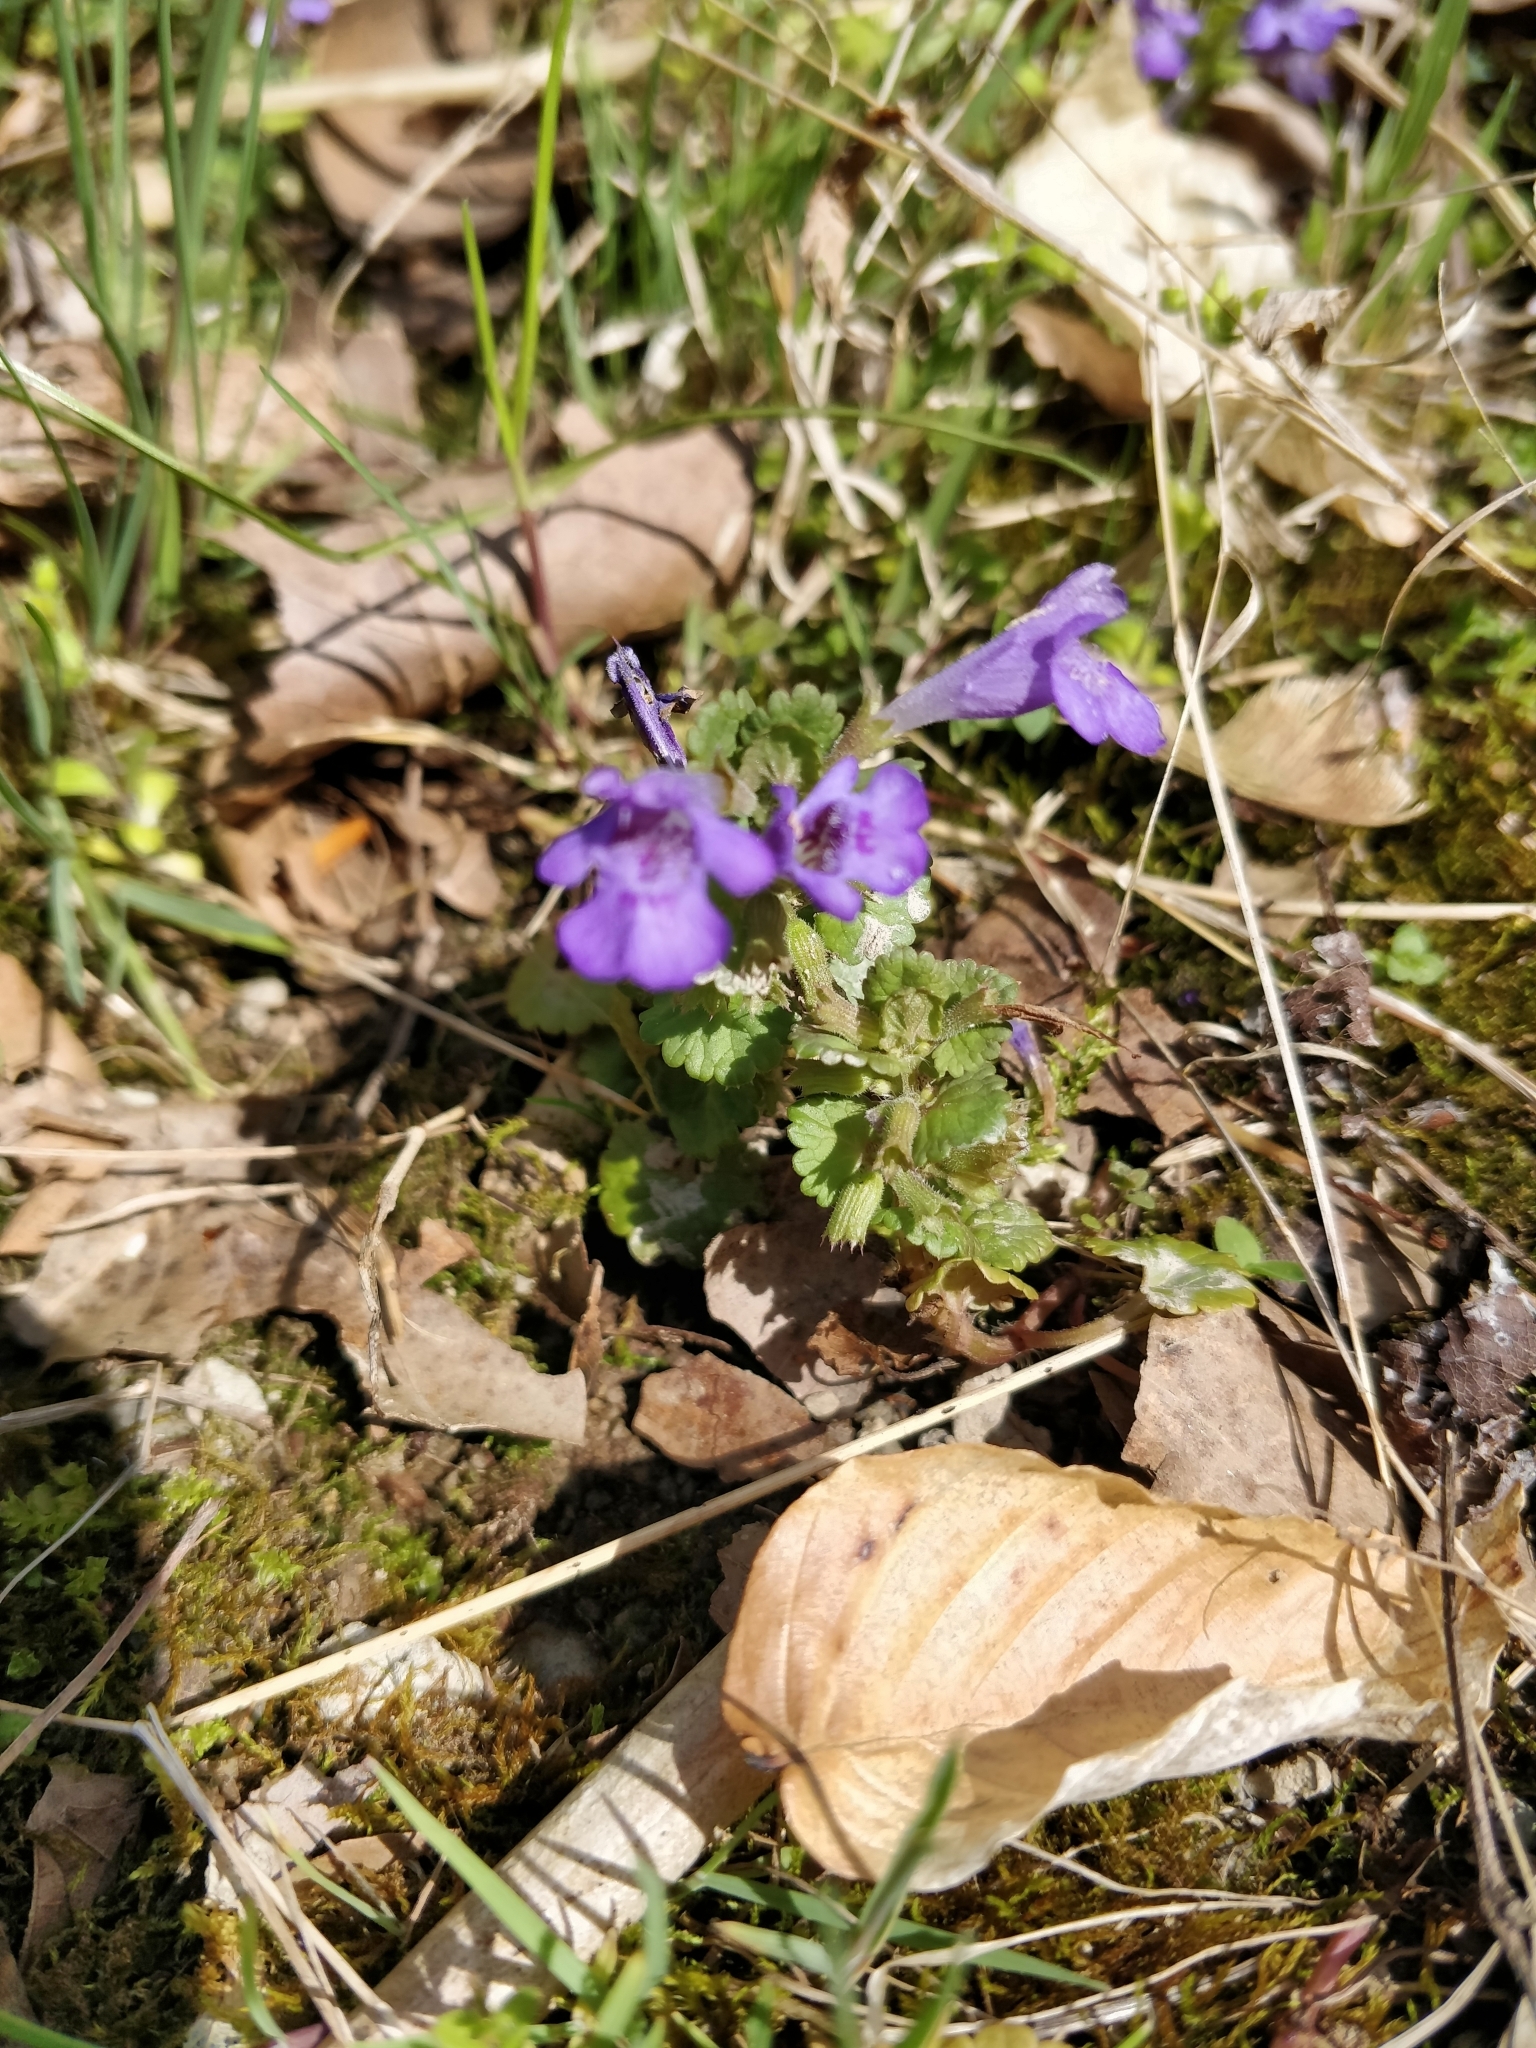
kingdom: Plantae
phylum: Tracheophyta
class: Magnoliopsida
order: Lamiales
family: Lamiaceae
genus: Glechoma
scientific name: Glechoma hederacea
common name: Ground ivy
